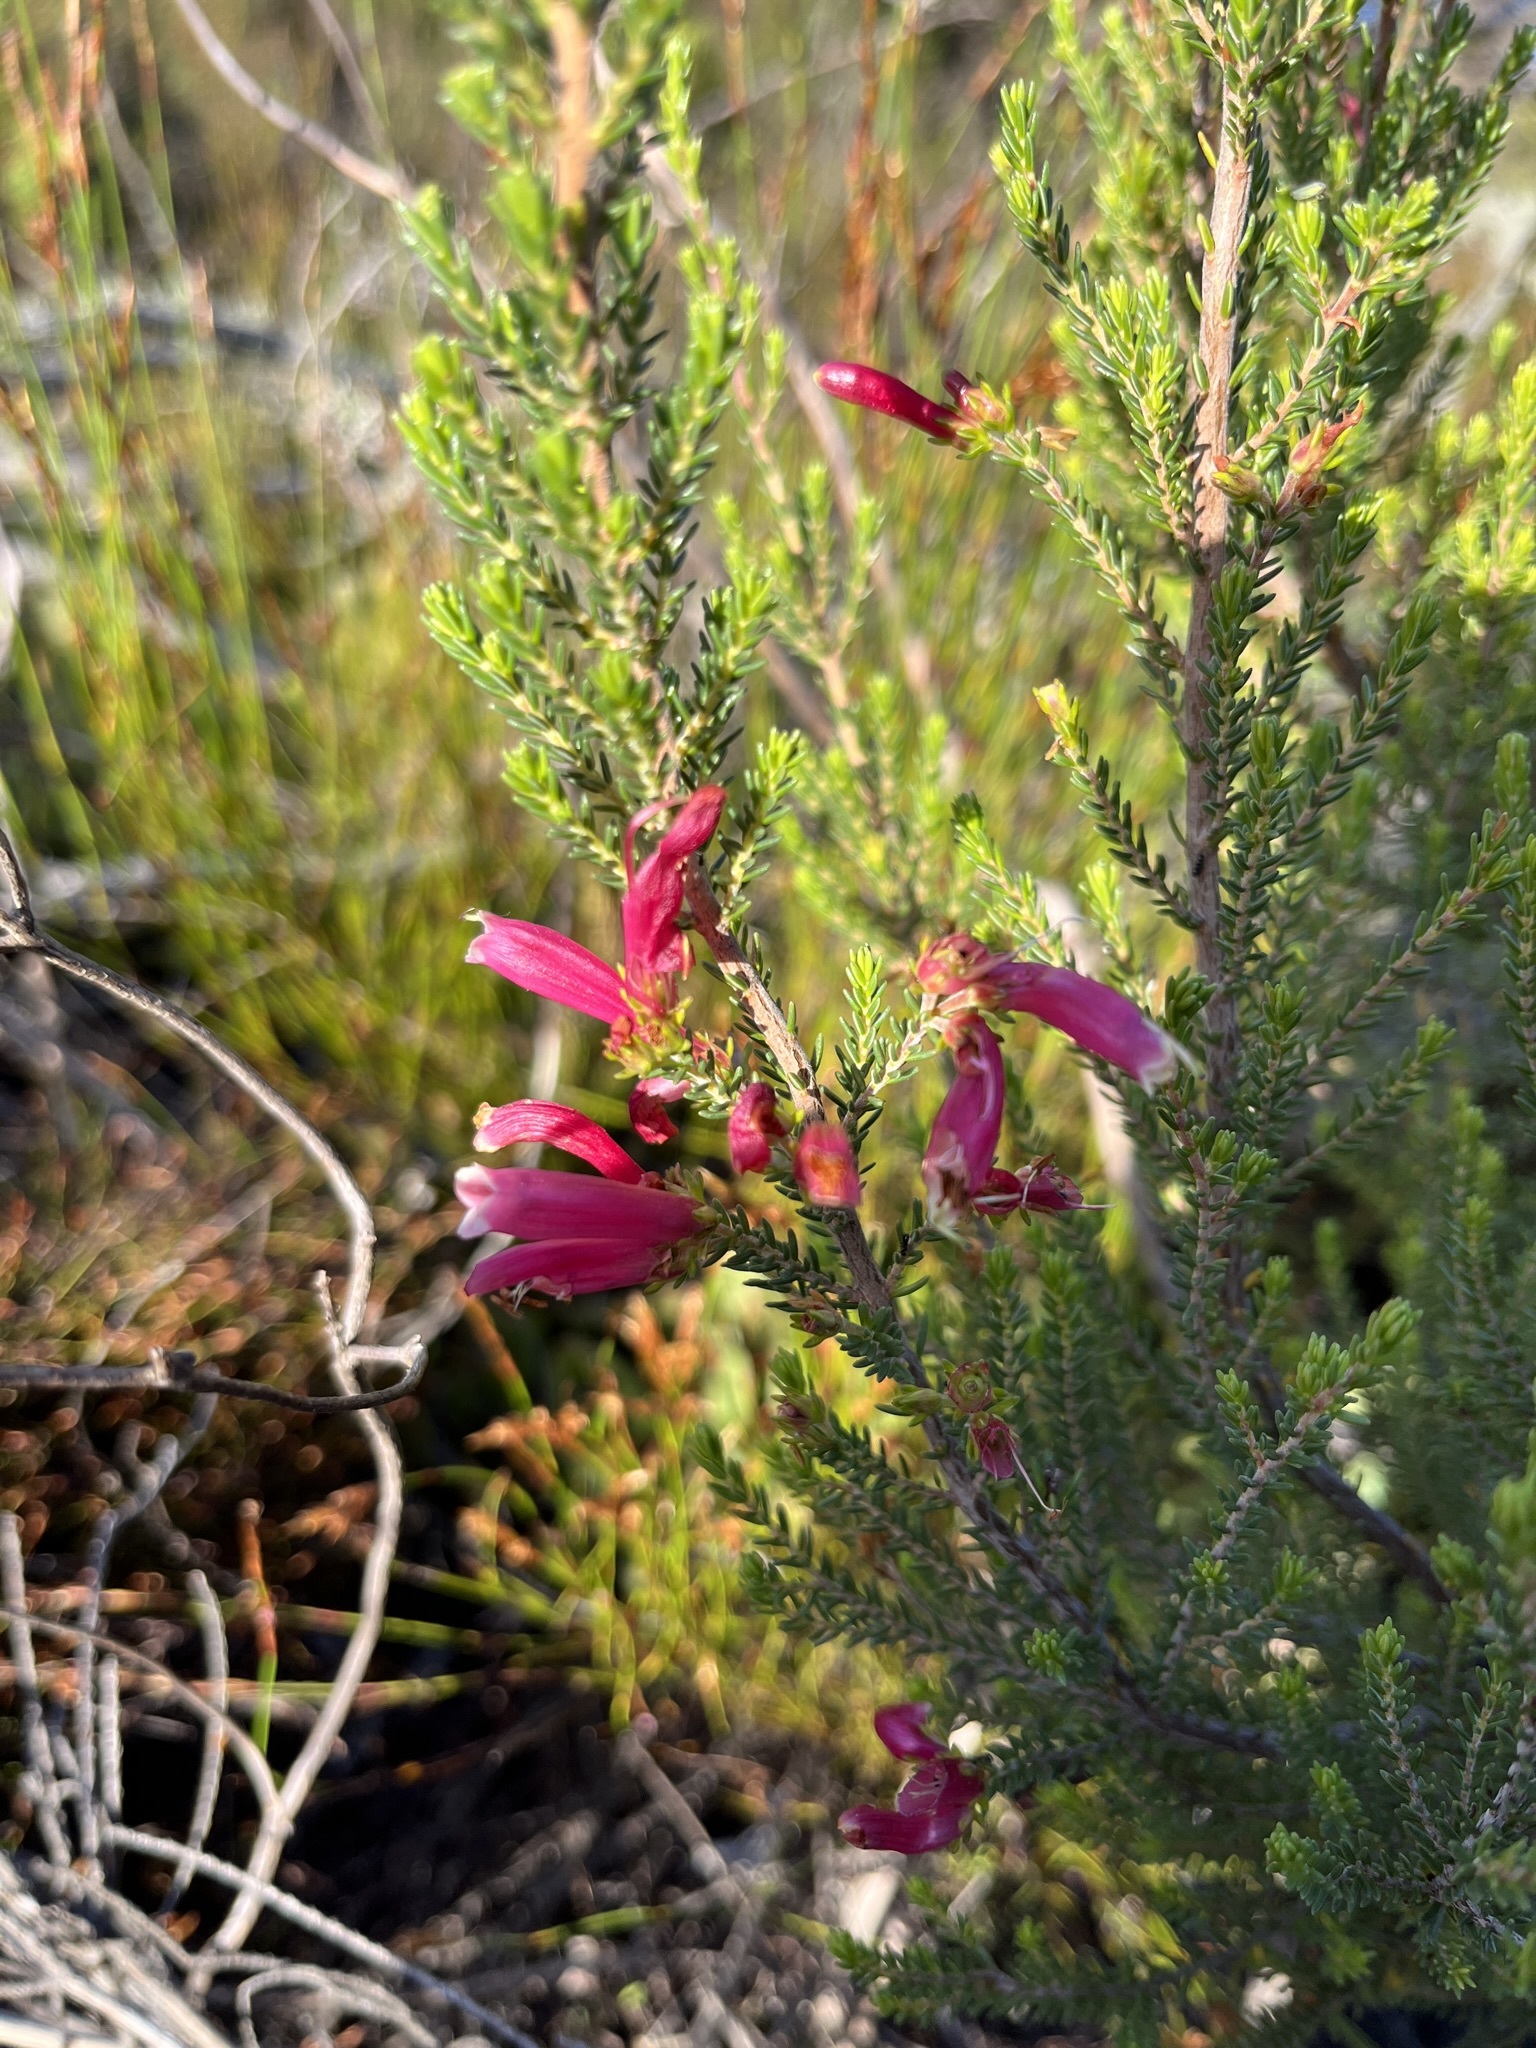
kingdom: Plantae
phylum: Tracheophyta
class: Magnoliopsida
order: Ericales
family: Ericaceae
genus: Erica
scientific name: Erica discolor
